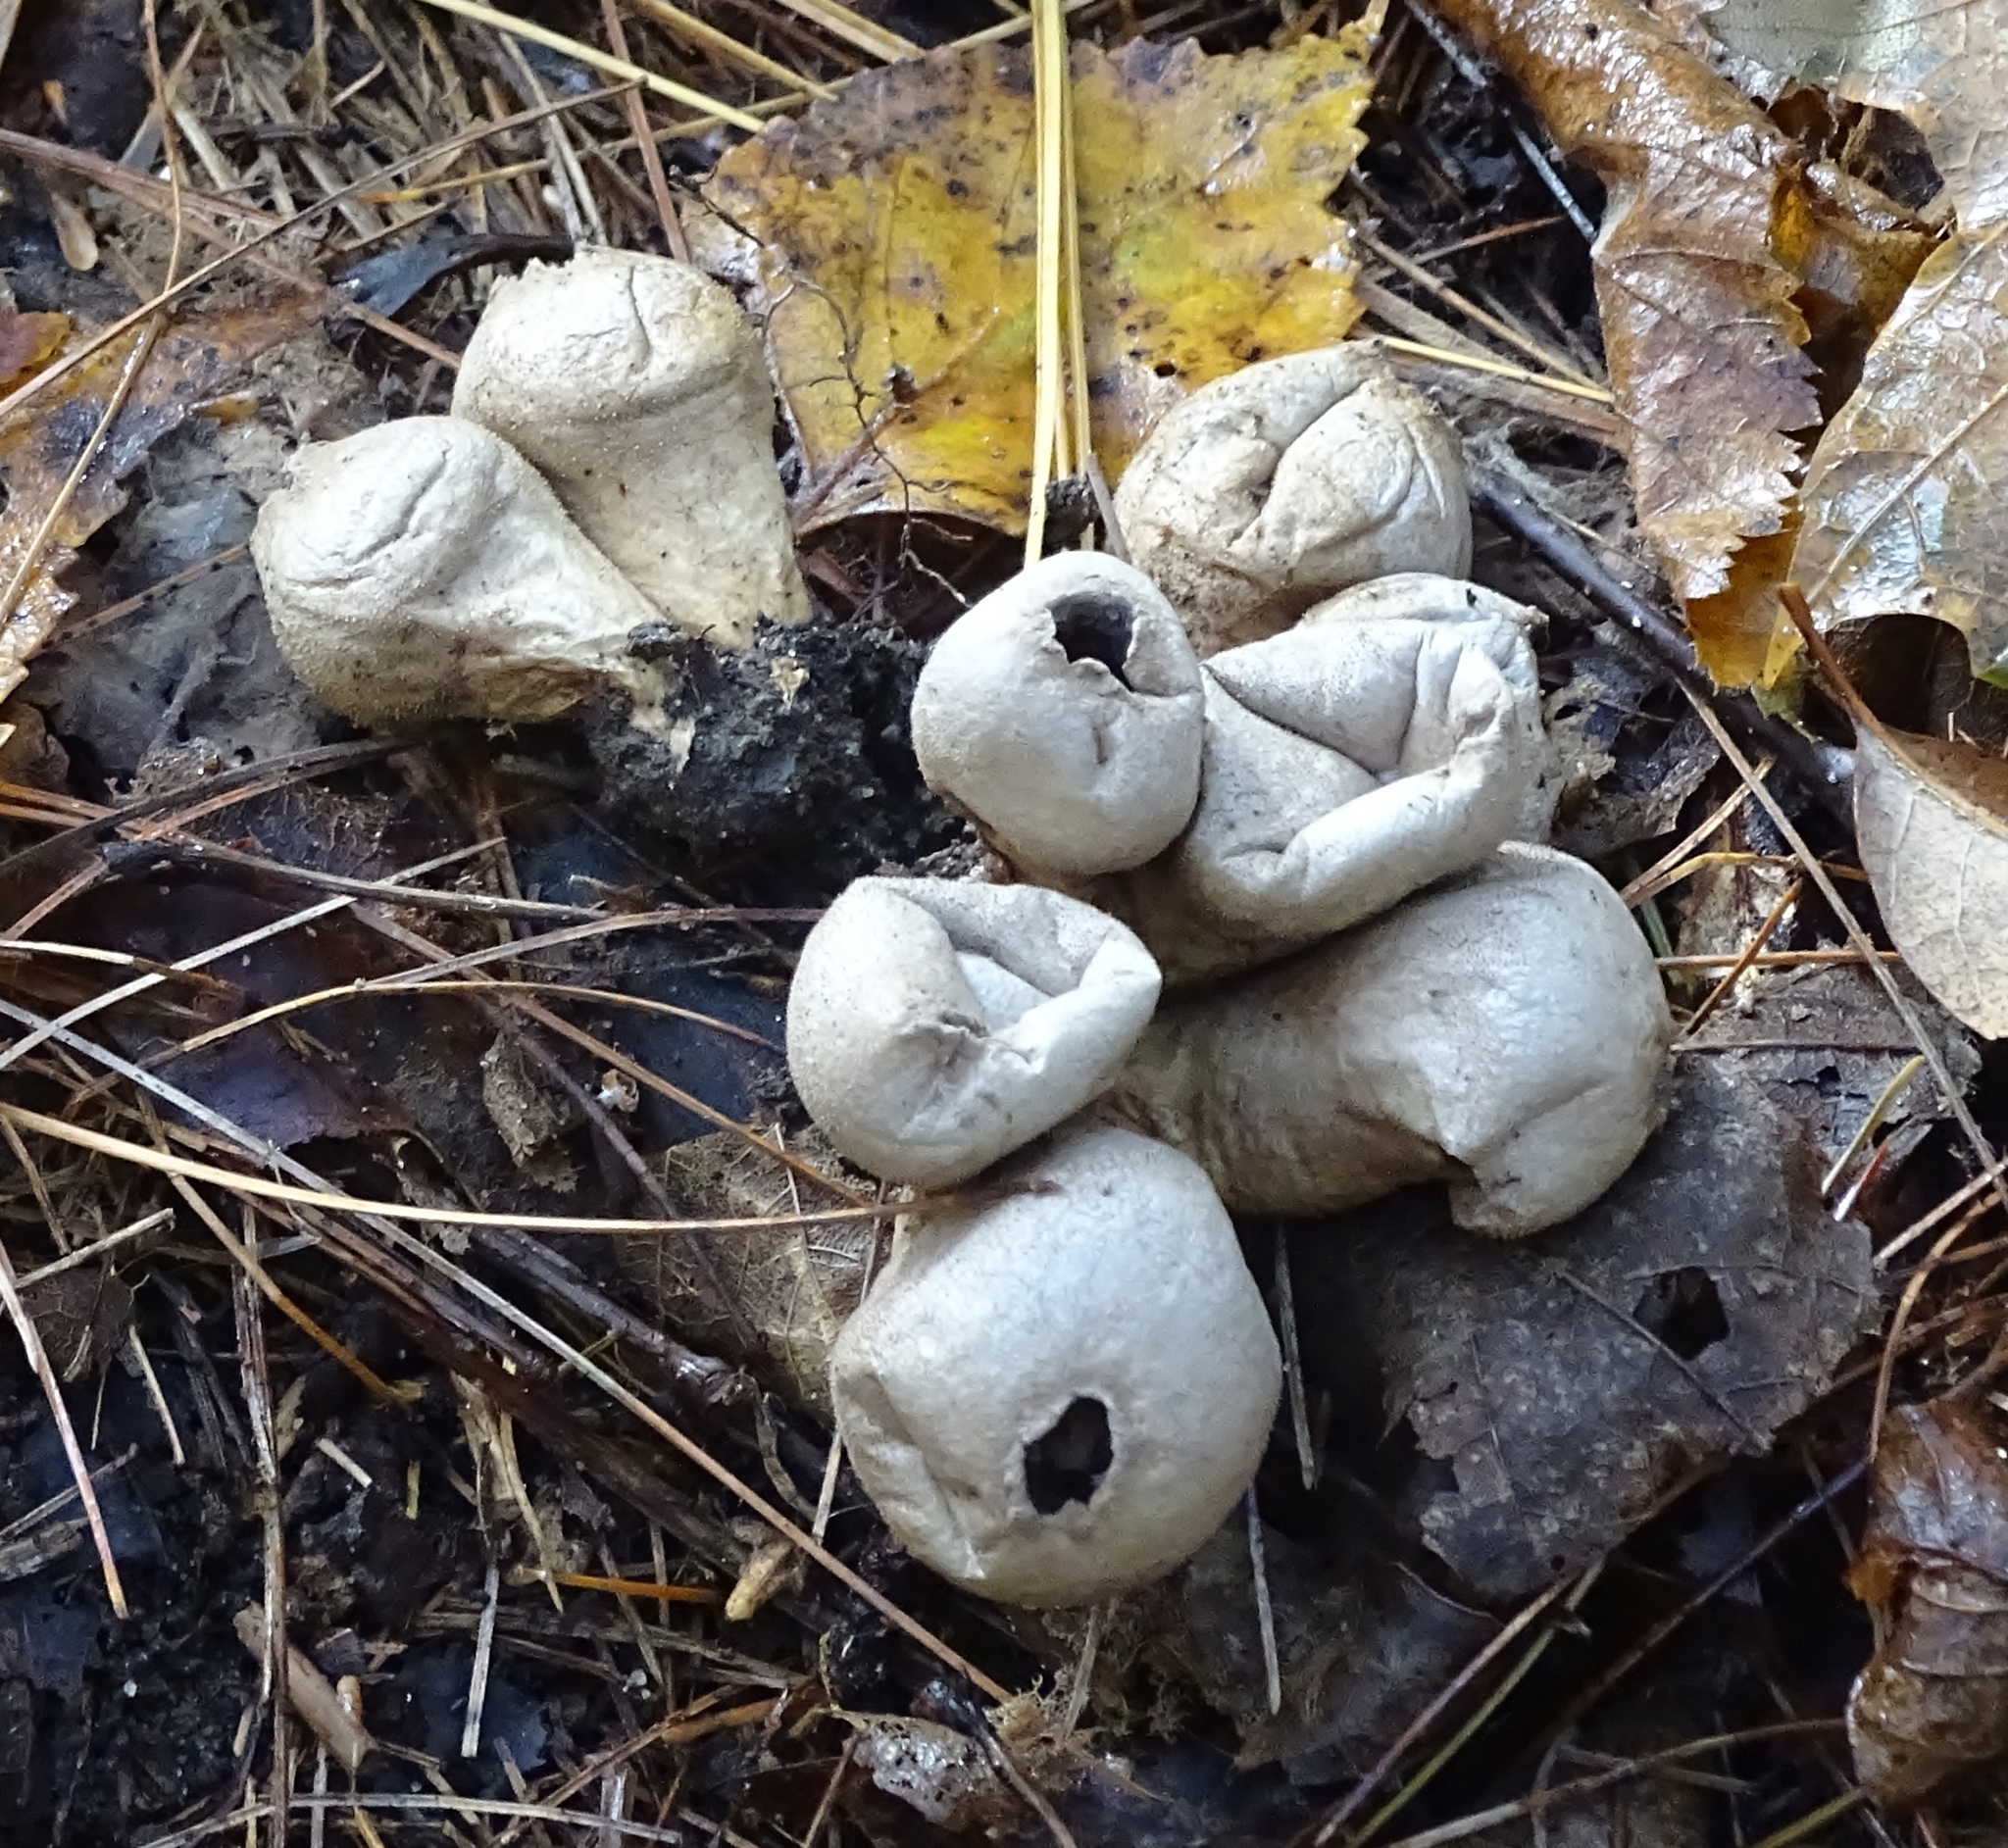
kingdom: Fungi
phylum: Basidiomycota
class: Agaricomycetes
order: Agaricales
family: Lycoperdaceae
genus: Apioperdon
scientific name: Apioperdon pyriforme
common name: Pear-shaped puffball
